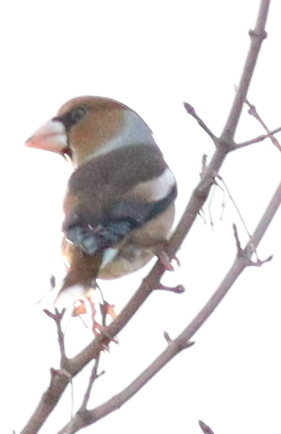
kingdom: Animalia
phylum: Chordata
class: Aves
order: Passeriformes
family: Fringillidae
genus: Coccothraustes
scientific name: Coccothraustes coccothraustes
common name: Hawfinch
